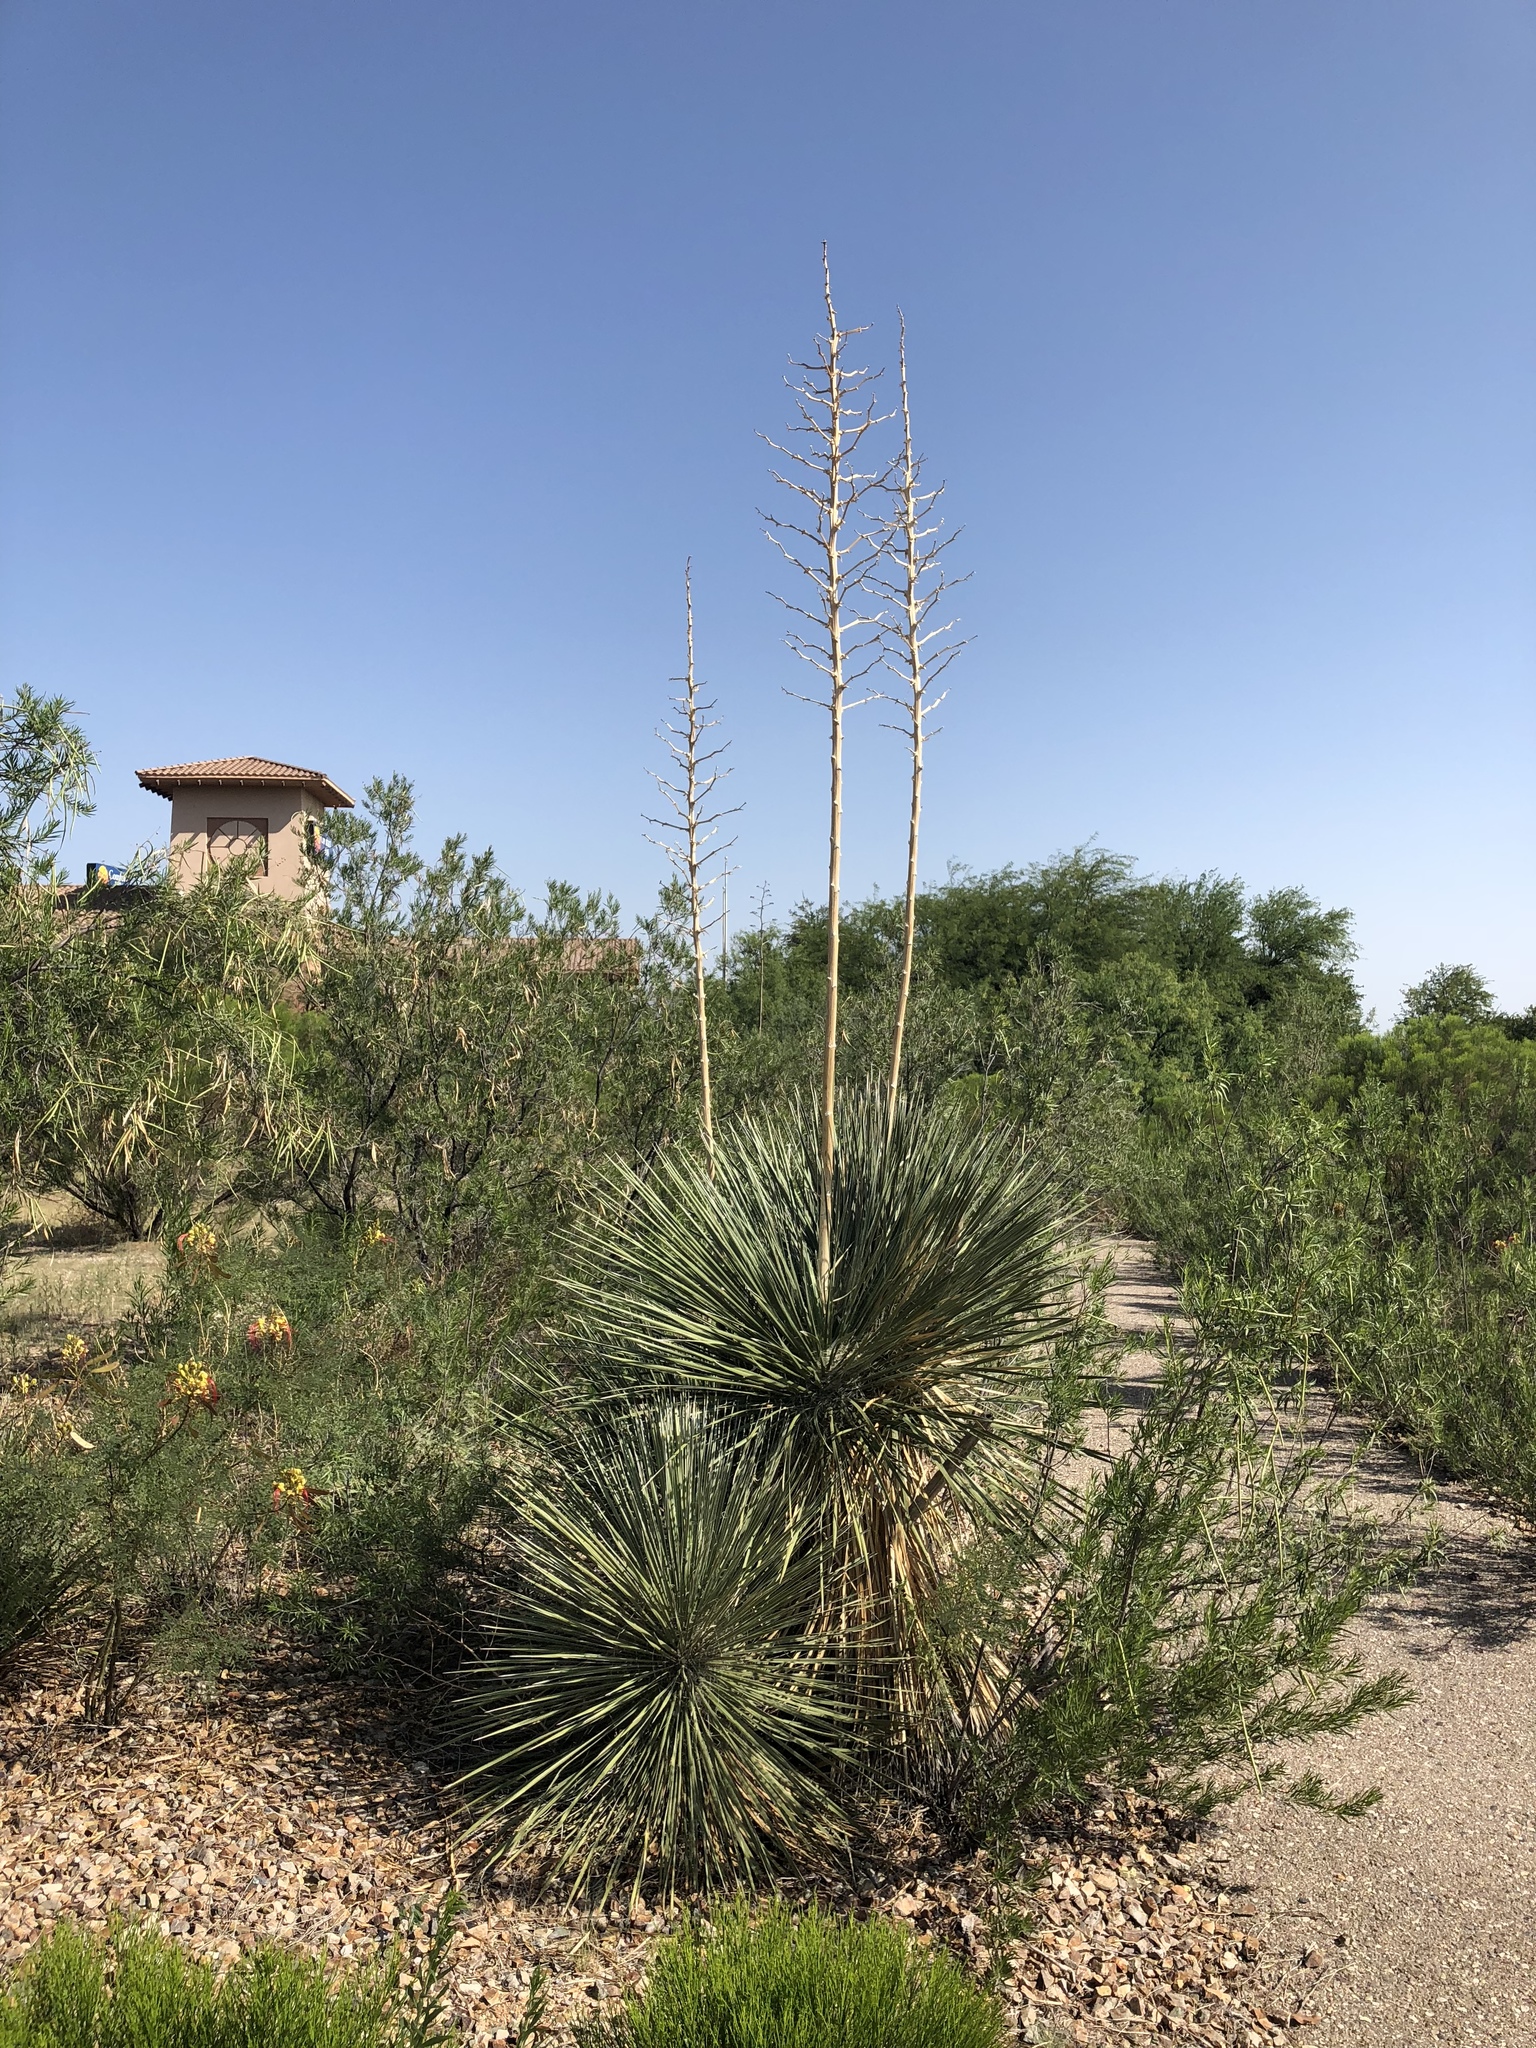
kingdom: Plantae
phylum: Tracheophyta
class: Liliopsida
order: Asparagales
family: Asparagaceae
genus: Yucca
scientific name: Yucca elata
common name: Palmella
